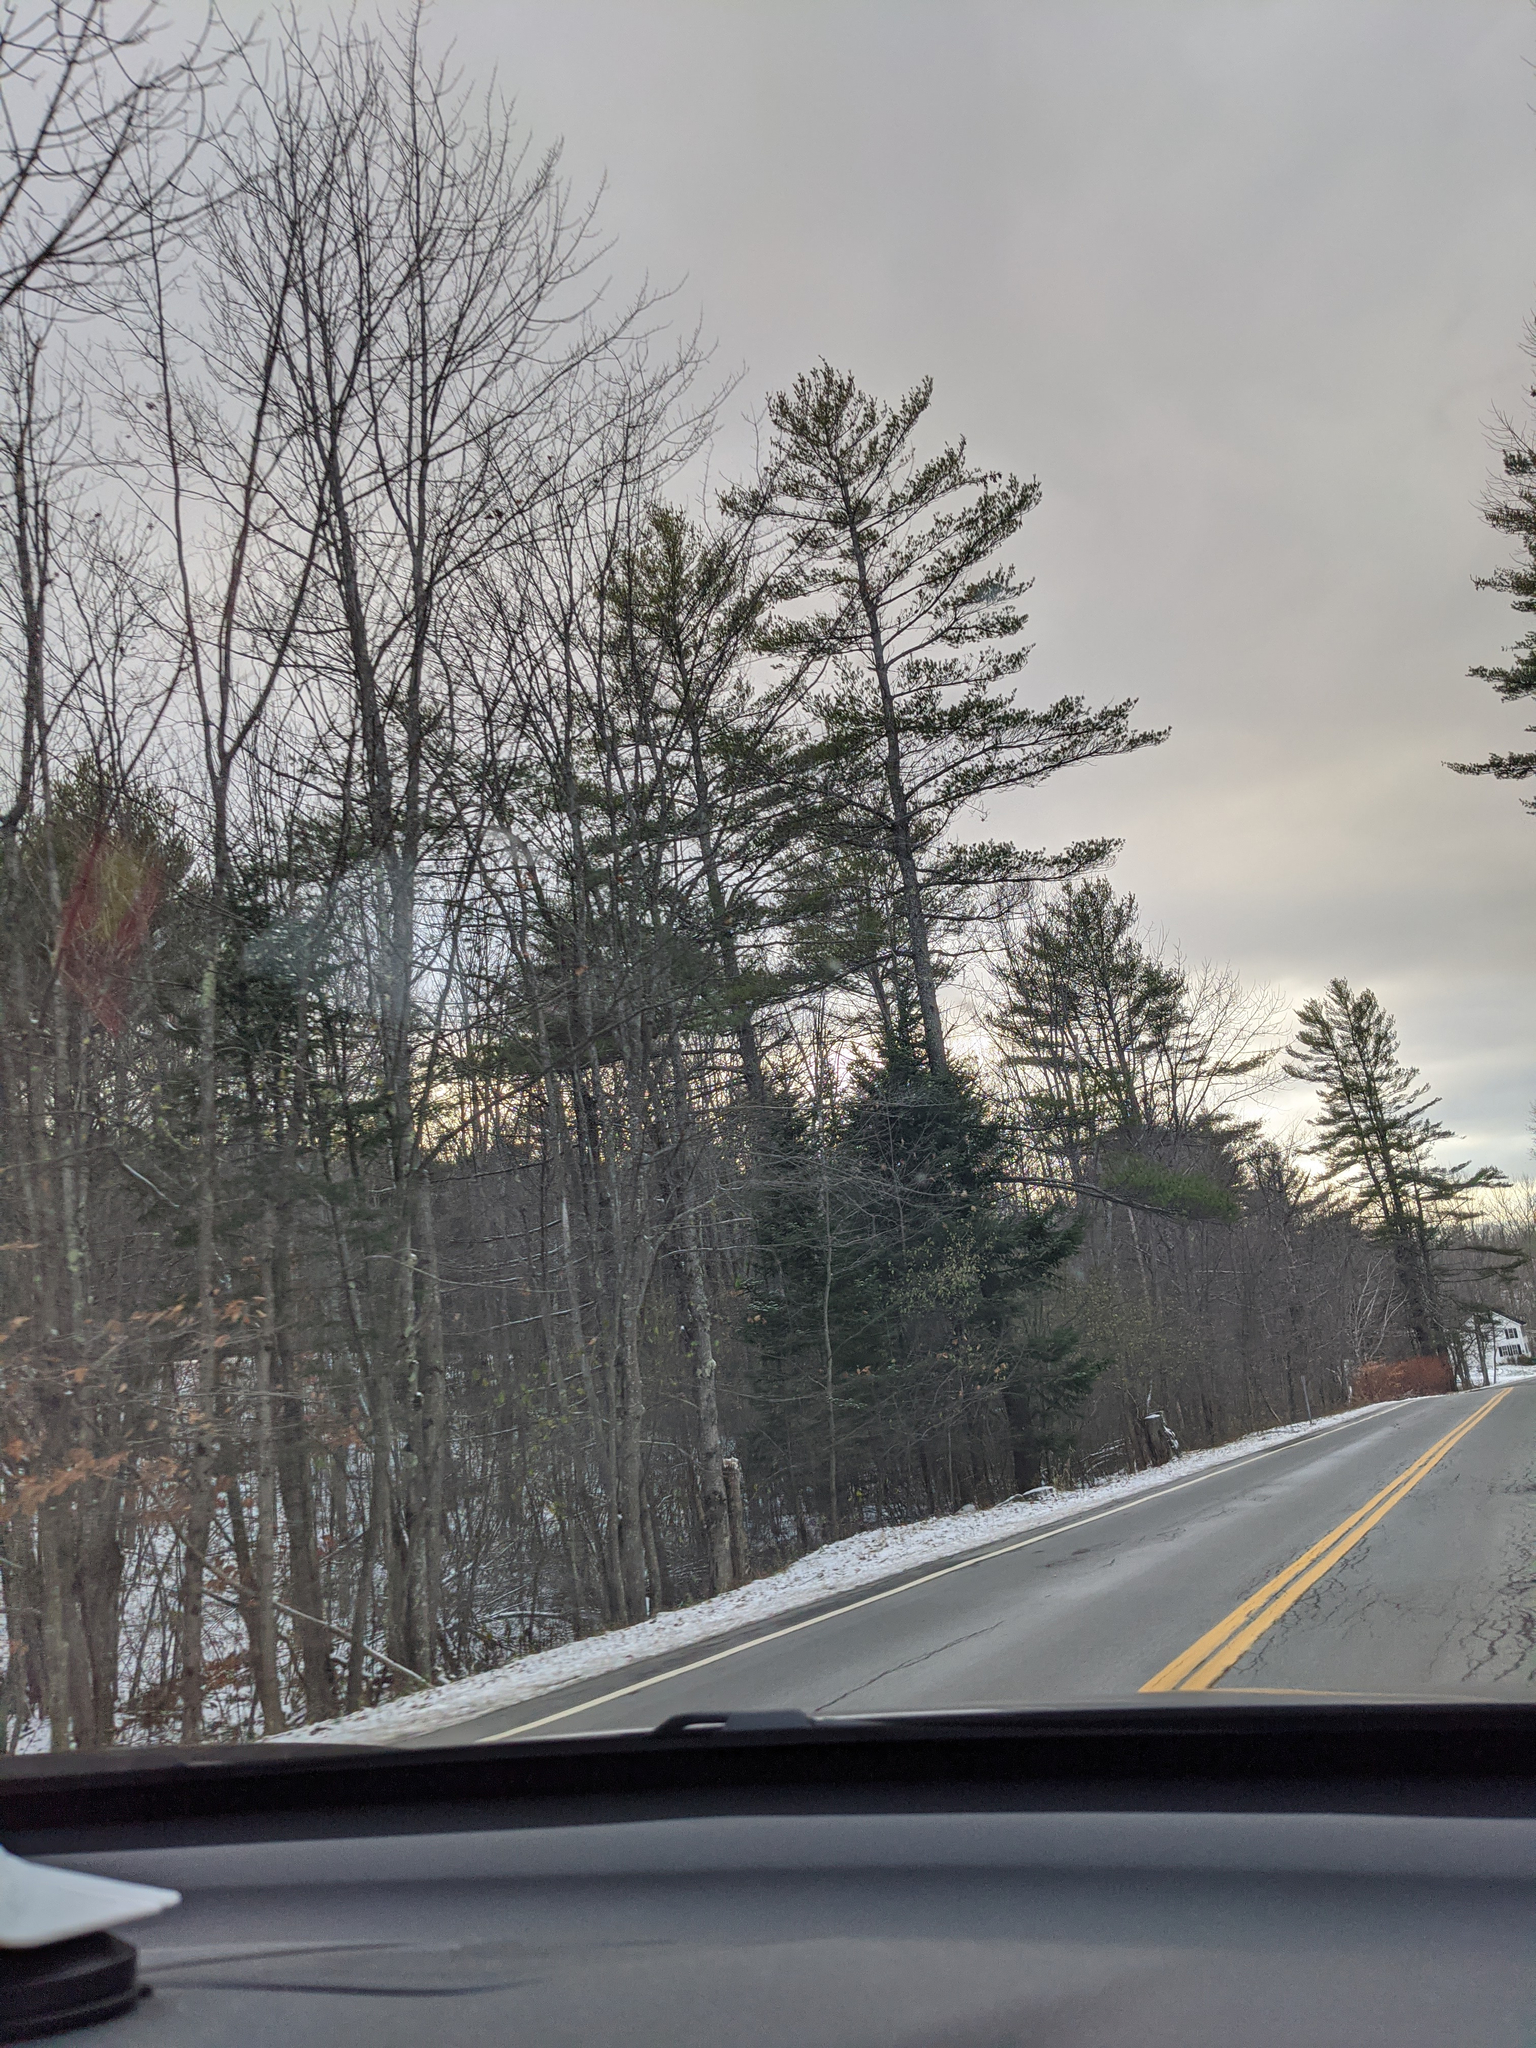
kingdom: Plantae
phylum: Tracheophyta
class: Pinopsida
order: Pinales
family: Pinaceae
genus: Pinus
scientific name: Pinus strobus
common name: Weymouth pine
